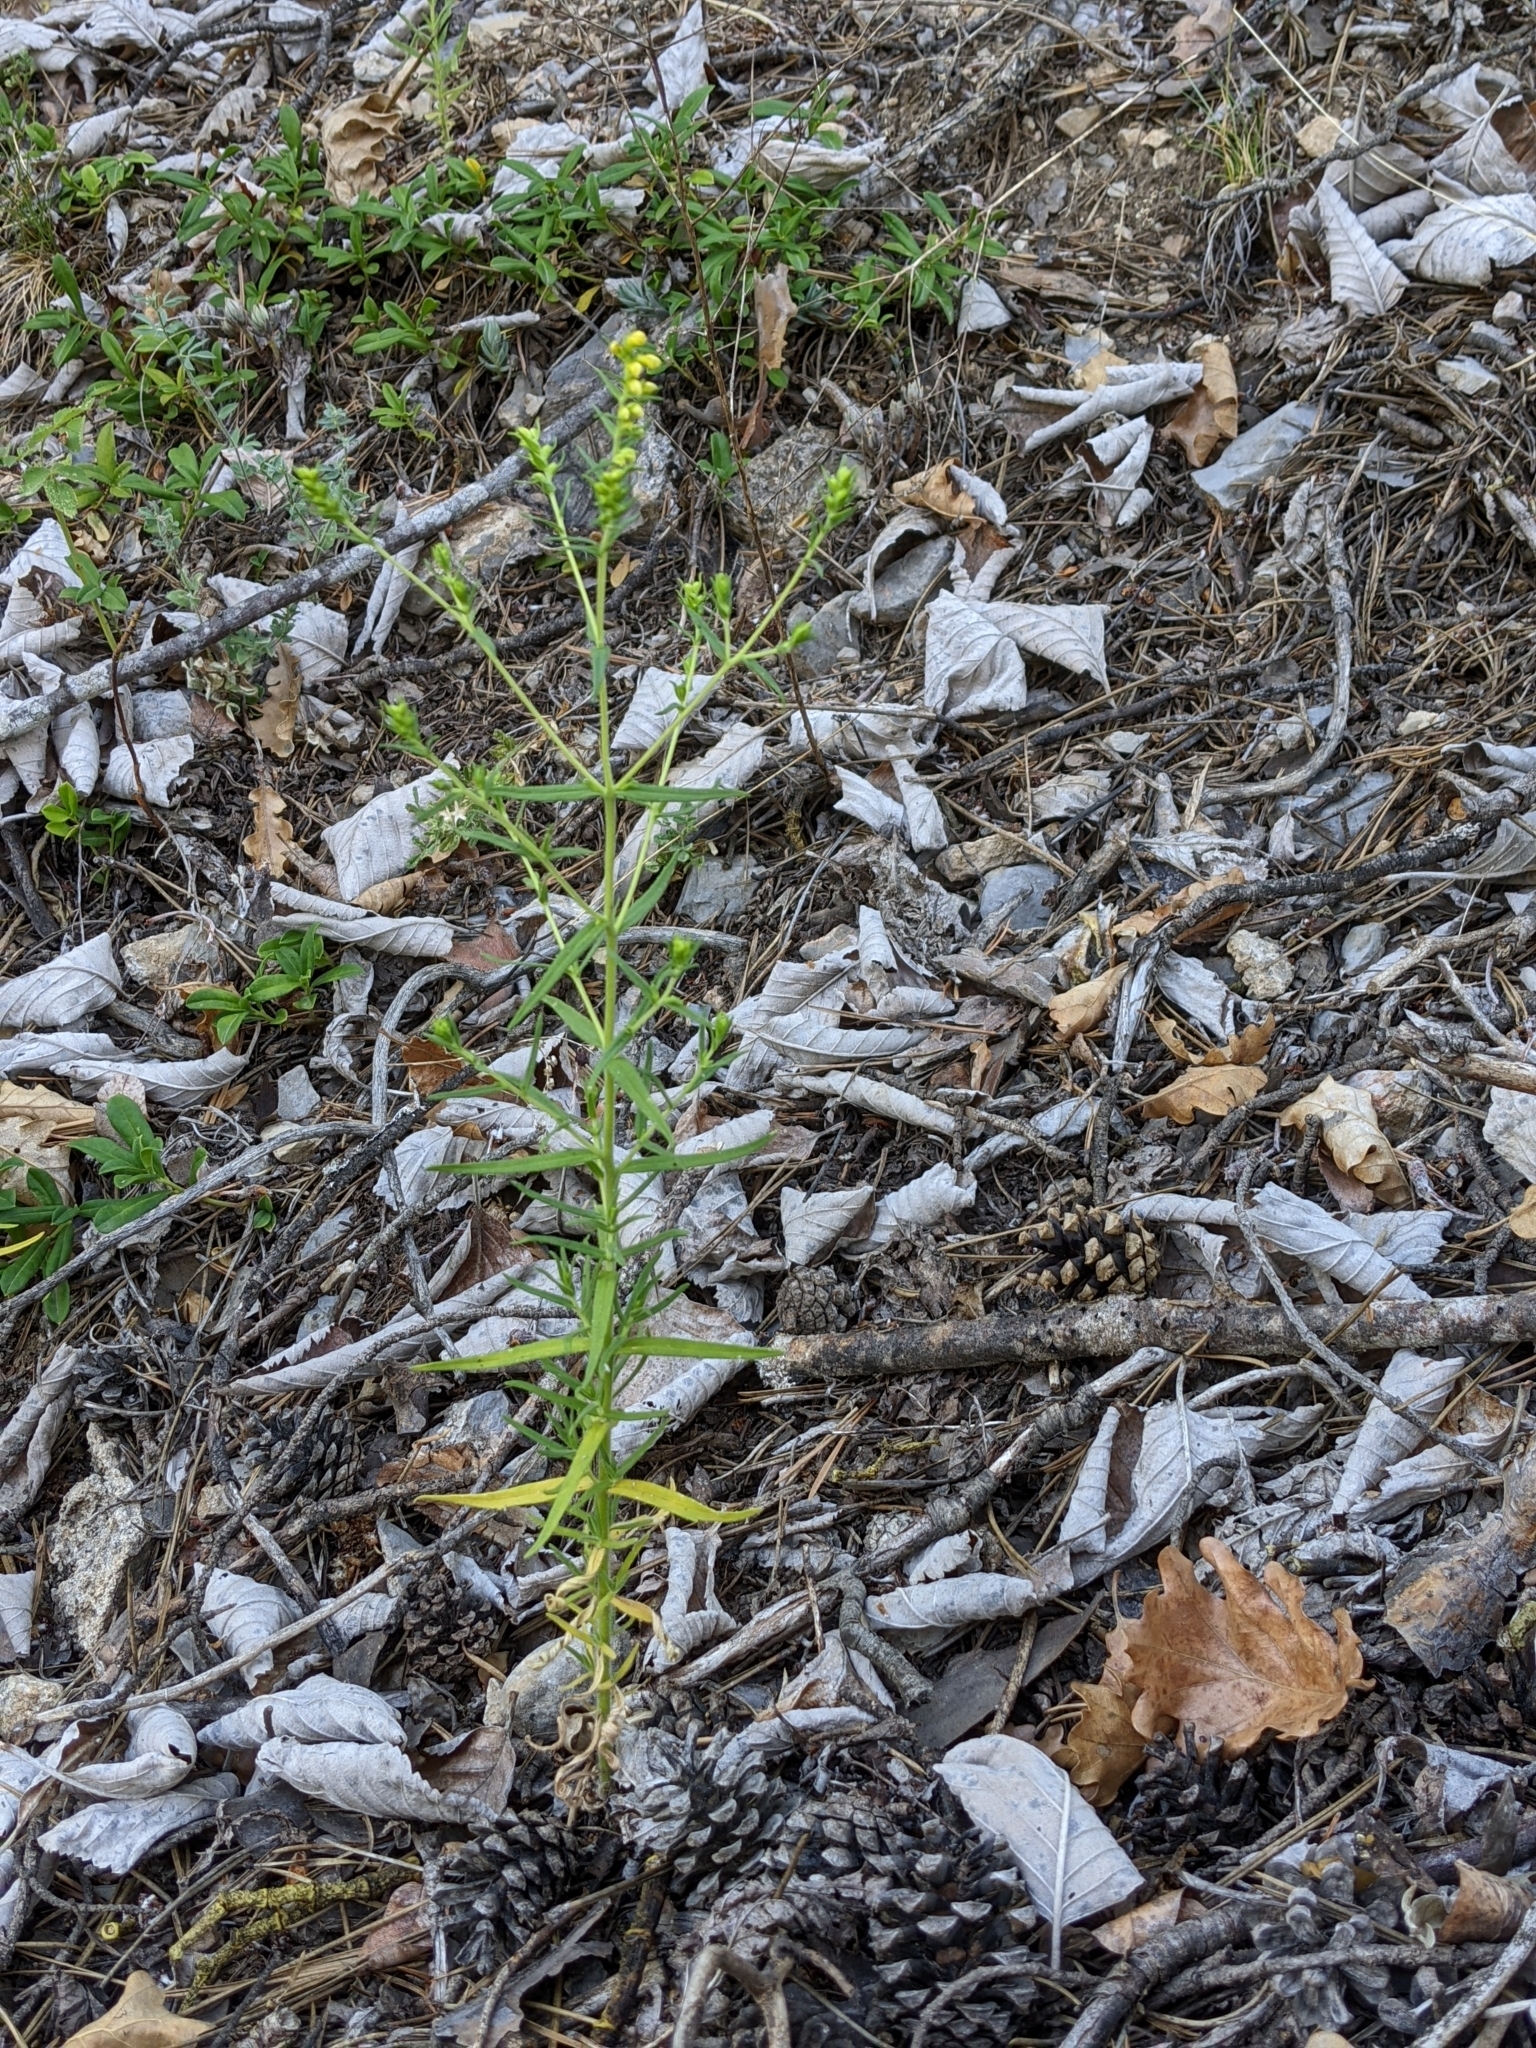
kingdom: Plantae
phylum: Tracheophyta
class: Magnoliopsida
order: Lamiales
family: Orobanchaceae
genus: Odontites
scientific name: Odontites viscosus
